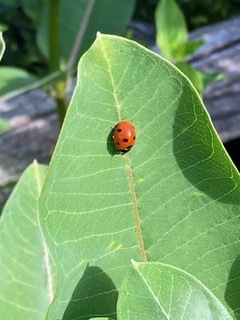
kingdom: Animalia
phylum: Arthropoda
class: Insecta
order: Coleoptera
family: Coccinellidae
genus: Coccinella
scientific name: Coccinella septempunctata
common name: Sevenspotted lady beetle
